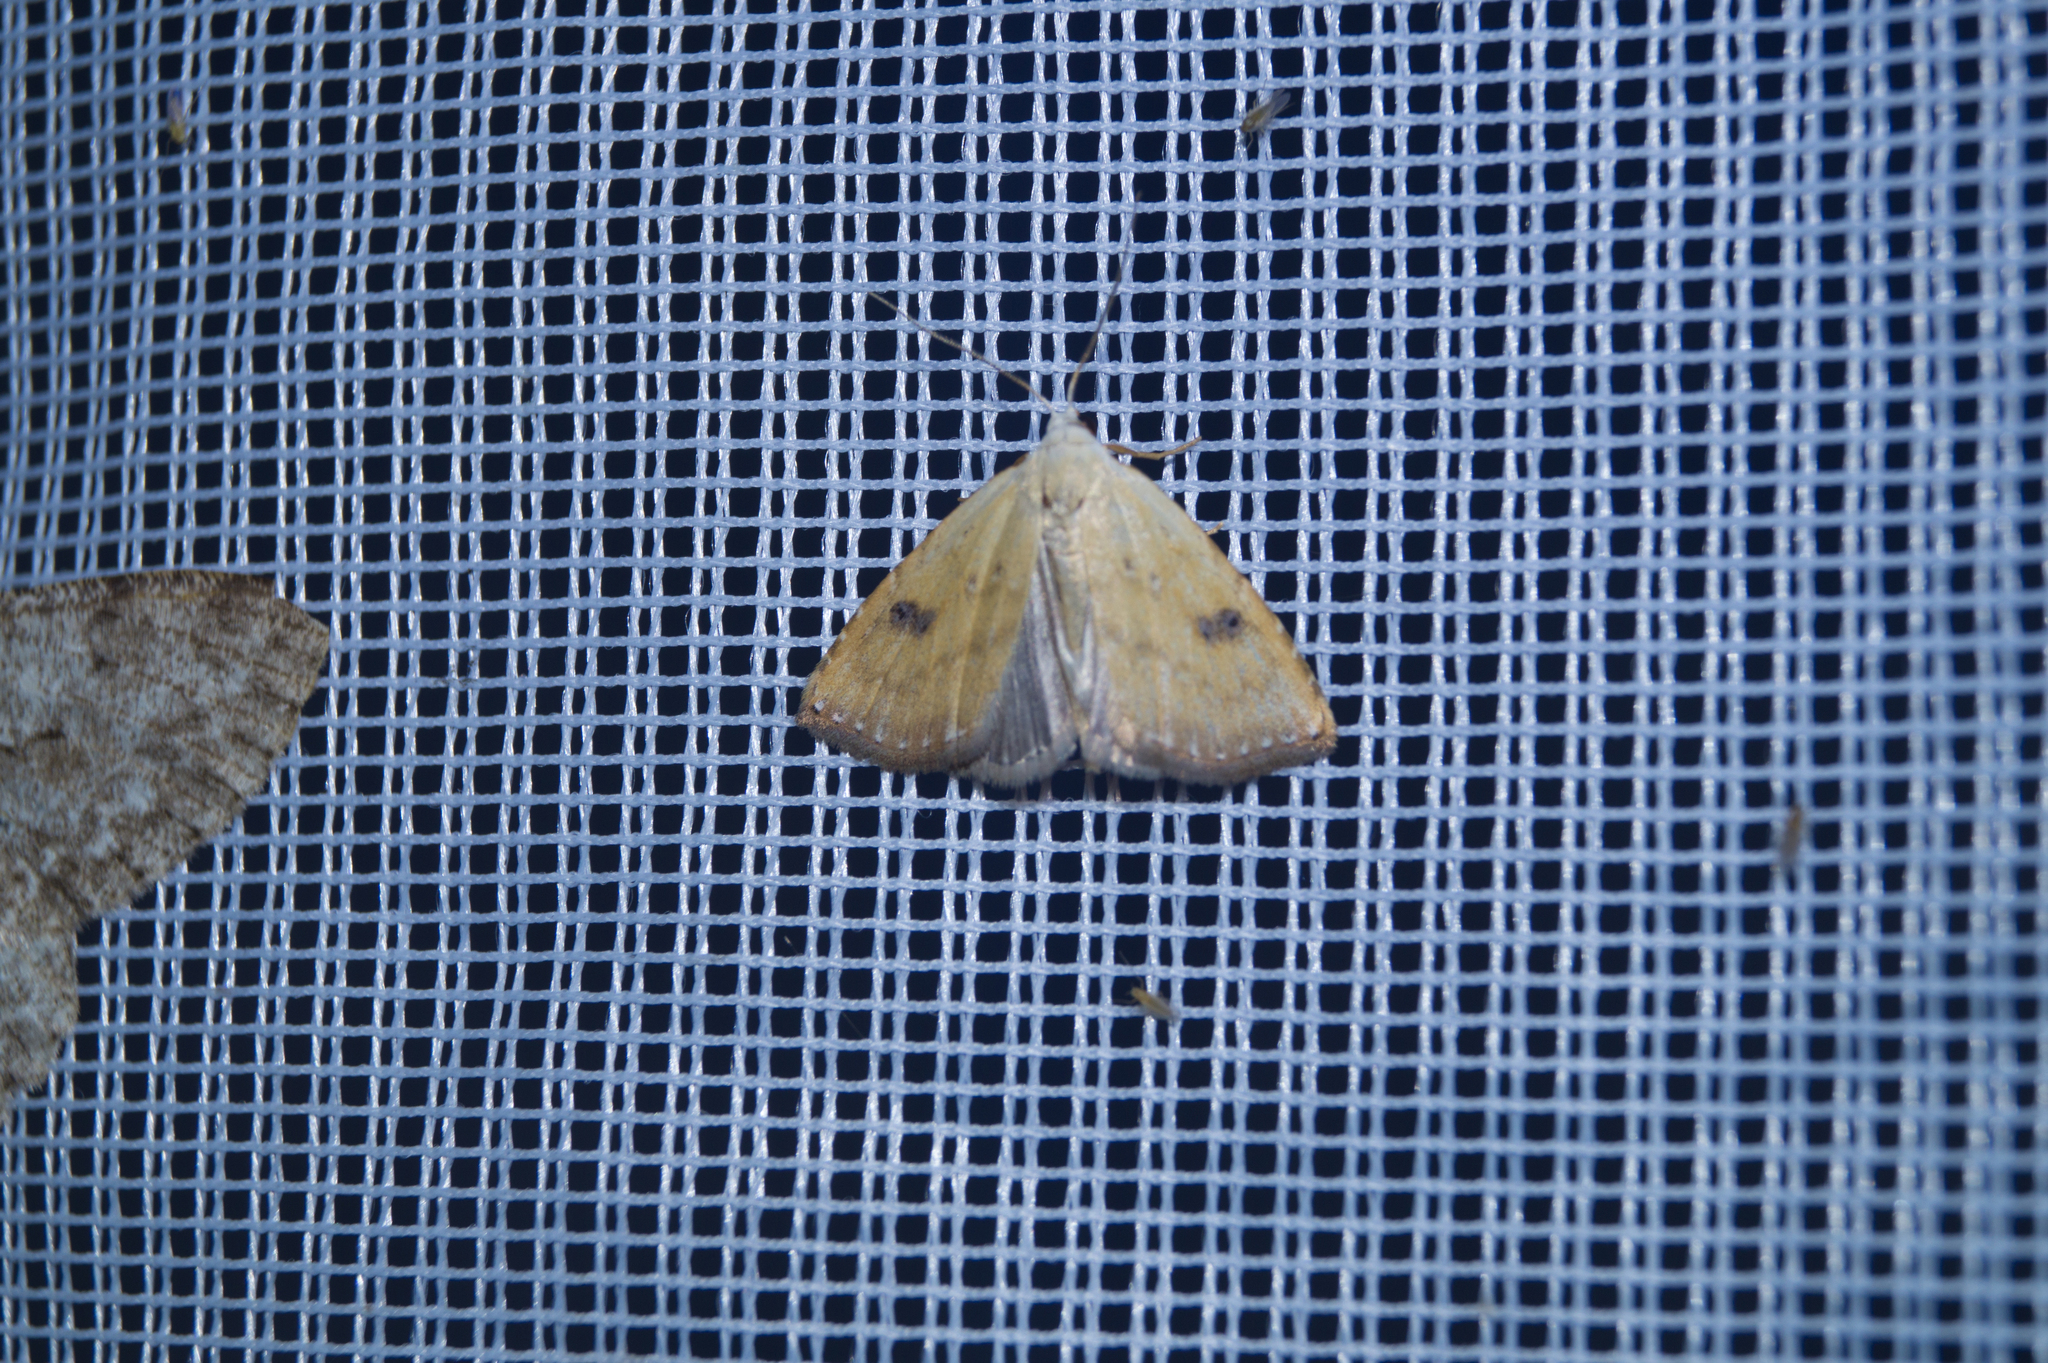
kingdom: Animalia
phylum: Arthropoda
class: Insecta
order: Lepidoptera
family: Erebidae
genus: Rivula
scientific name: Rivula sericealis
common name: Straw dot
